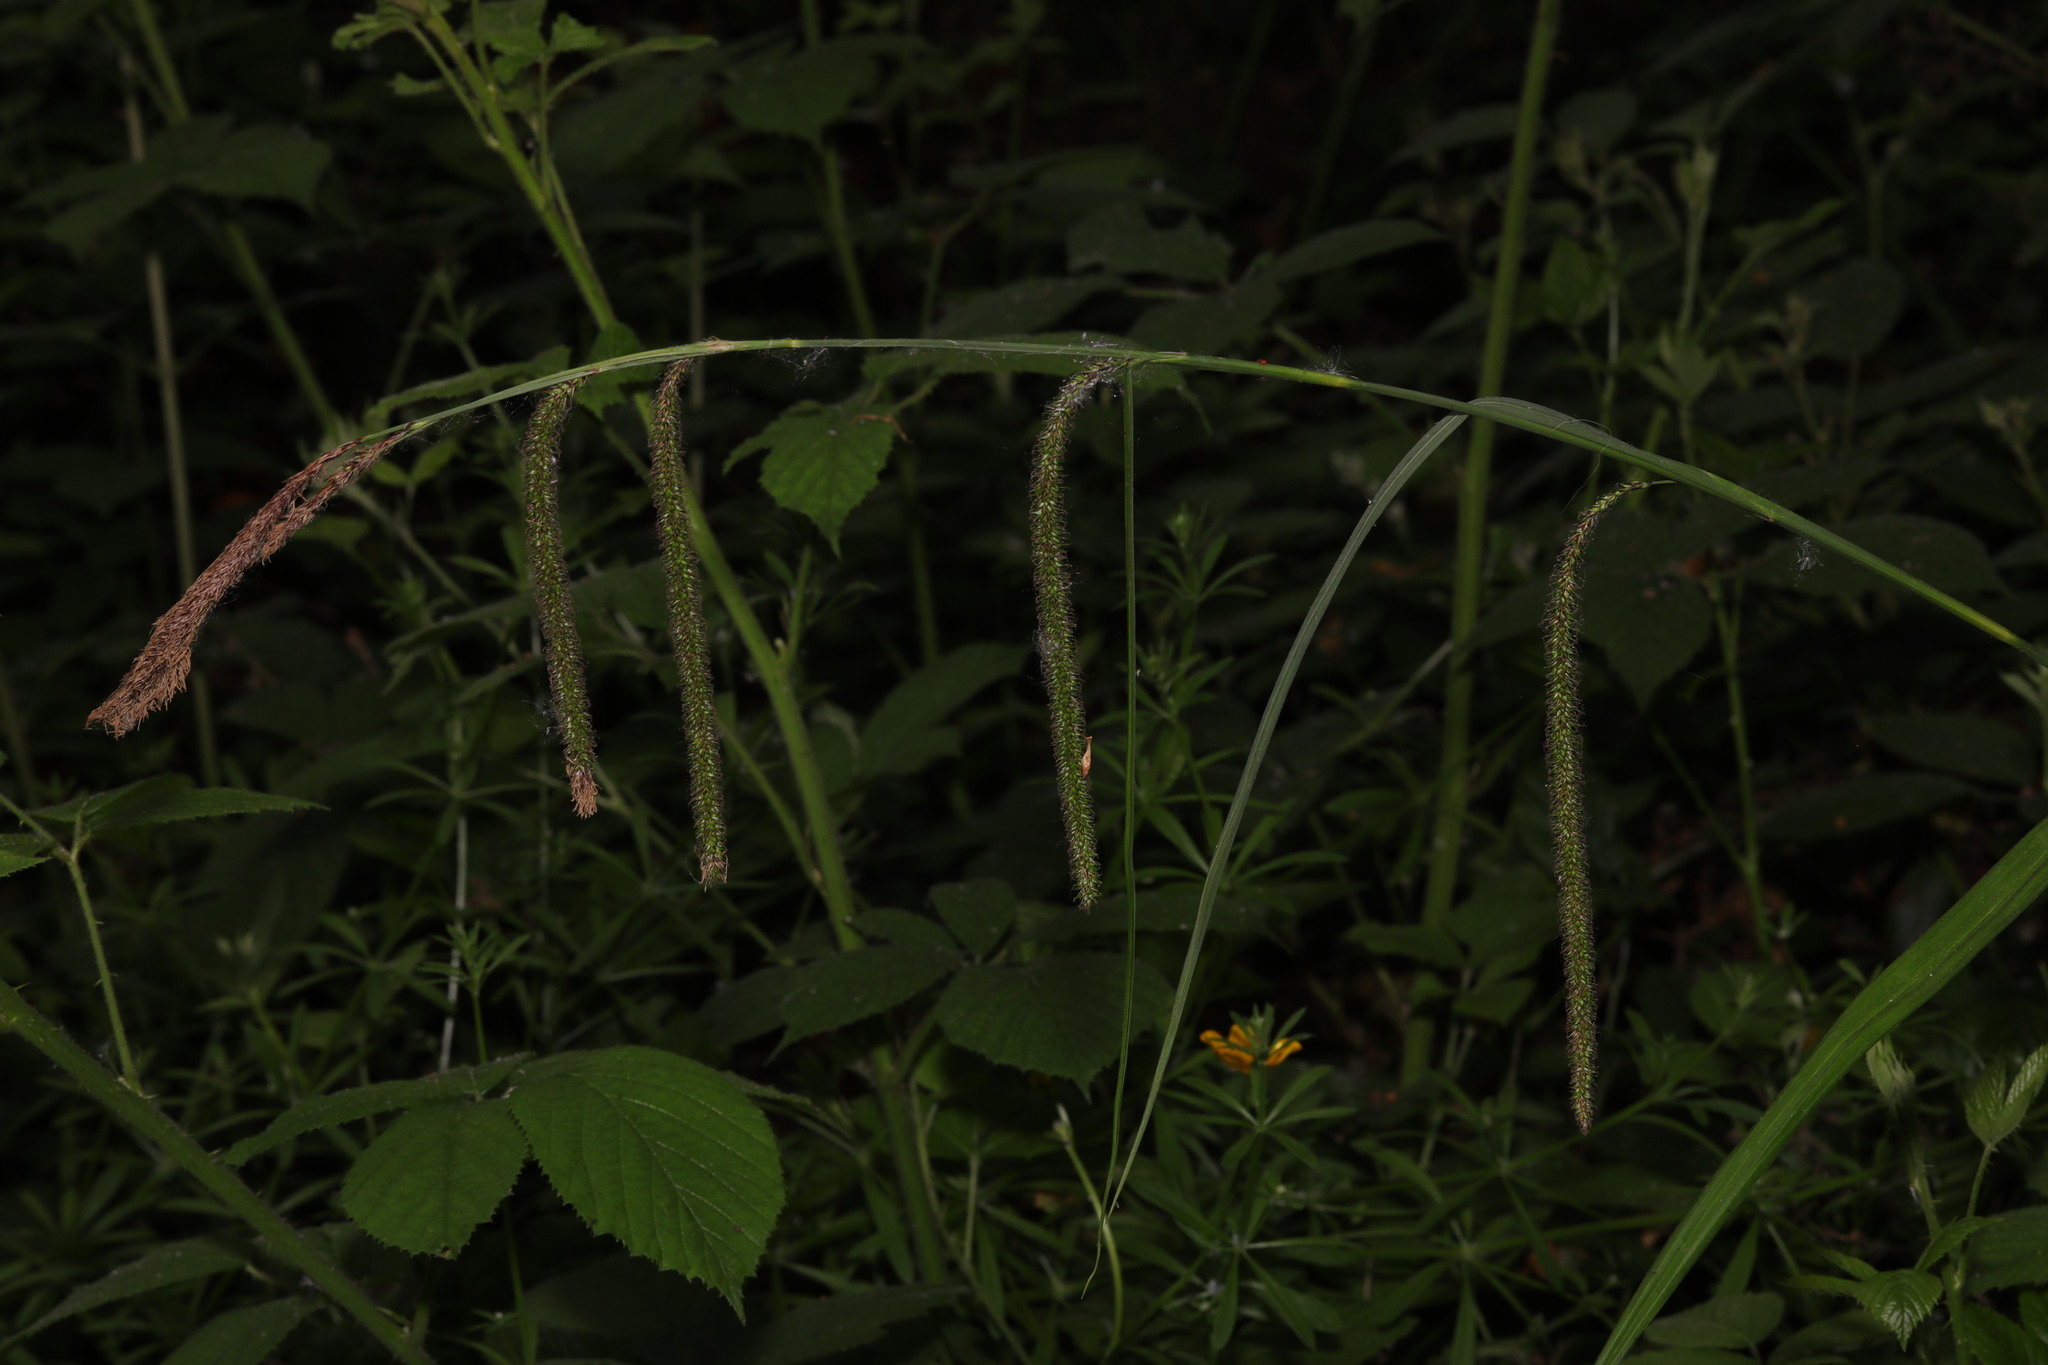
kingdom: Plantae
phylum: Tracheophyta
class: Liliopsida
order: Poales
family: Cyperaceae
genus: Carex
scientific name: Carex pendula
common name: Pendulous sedge
